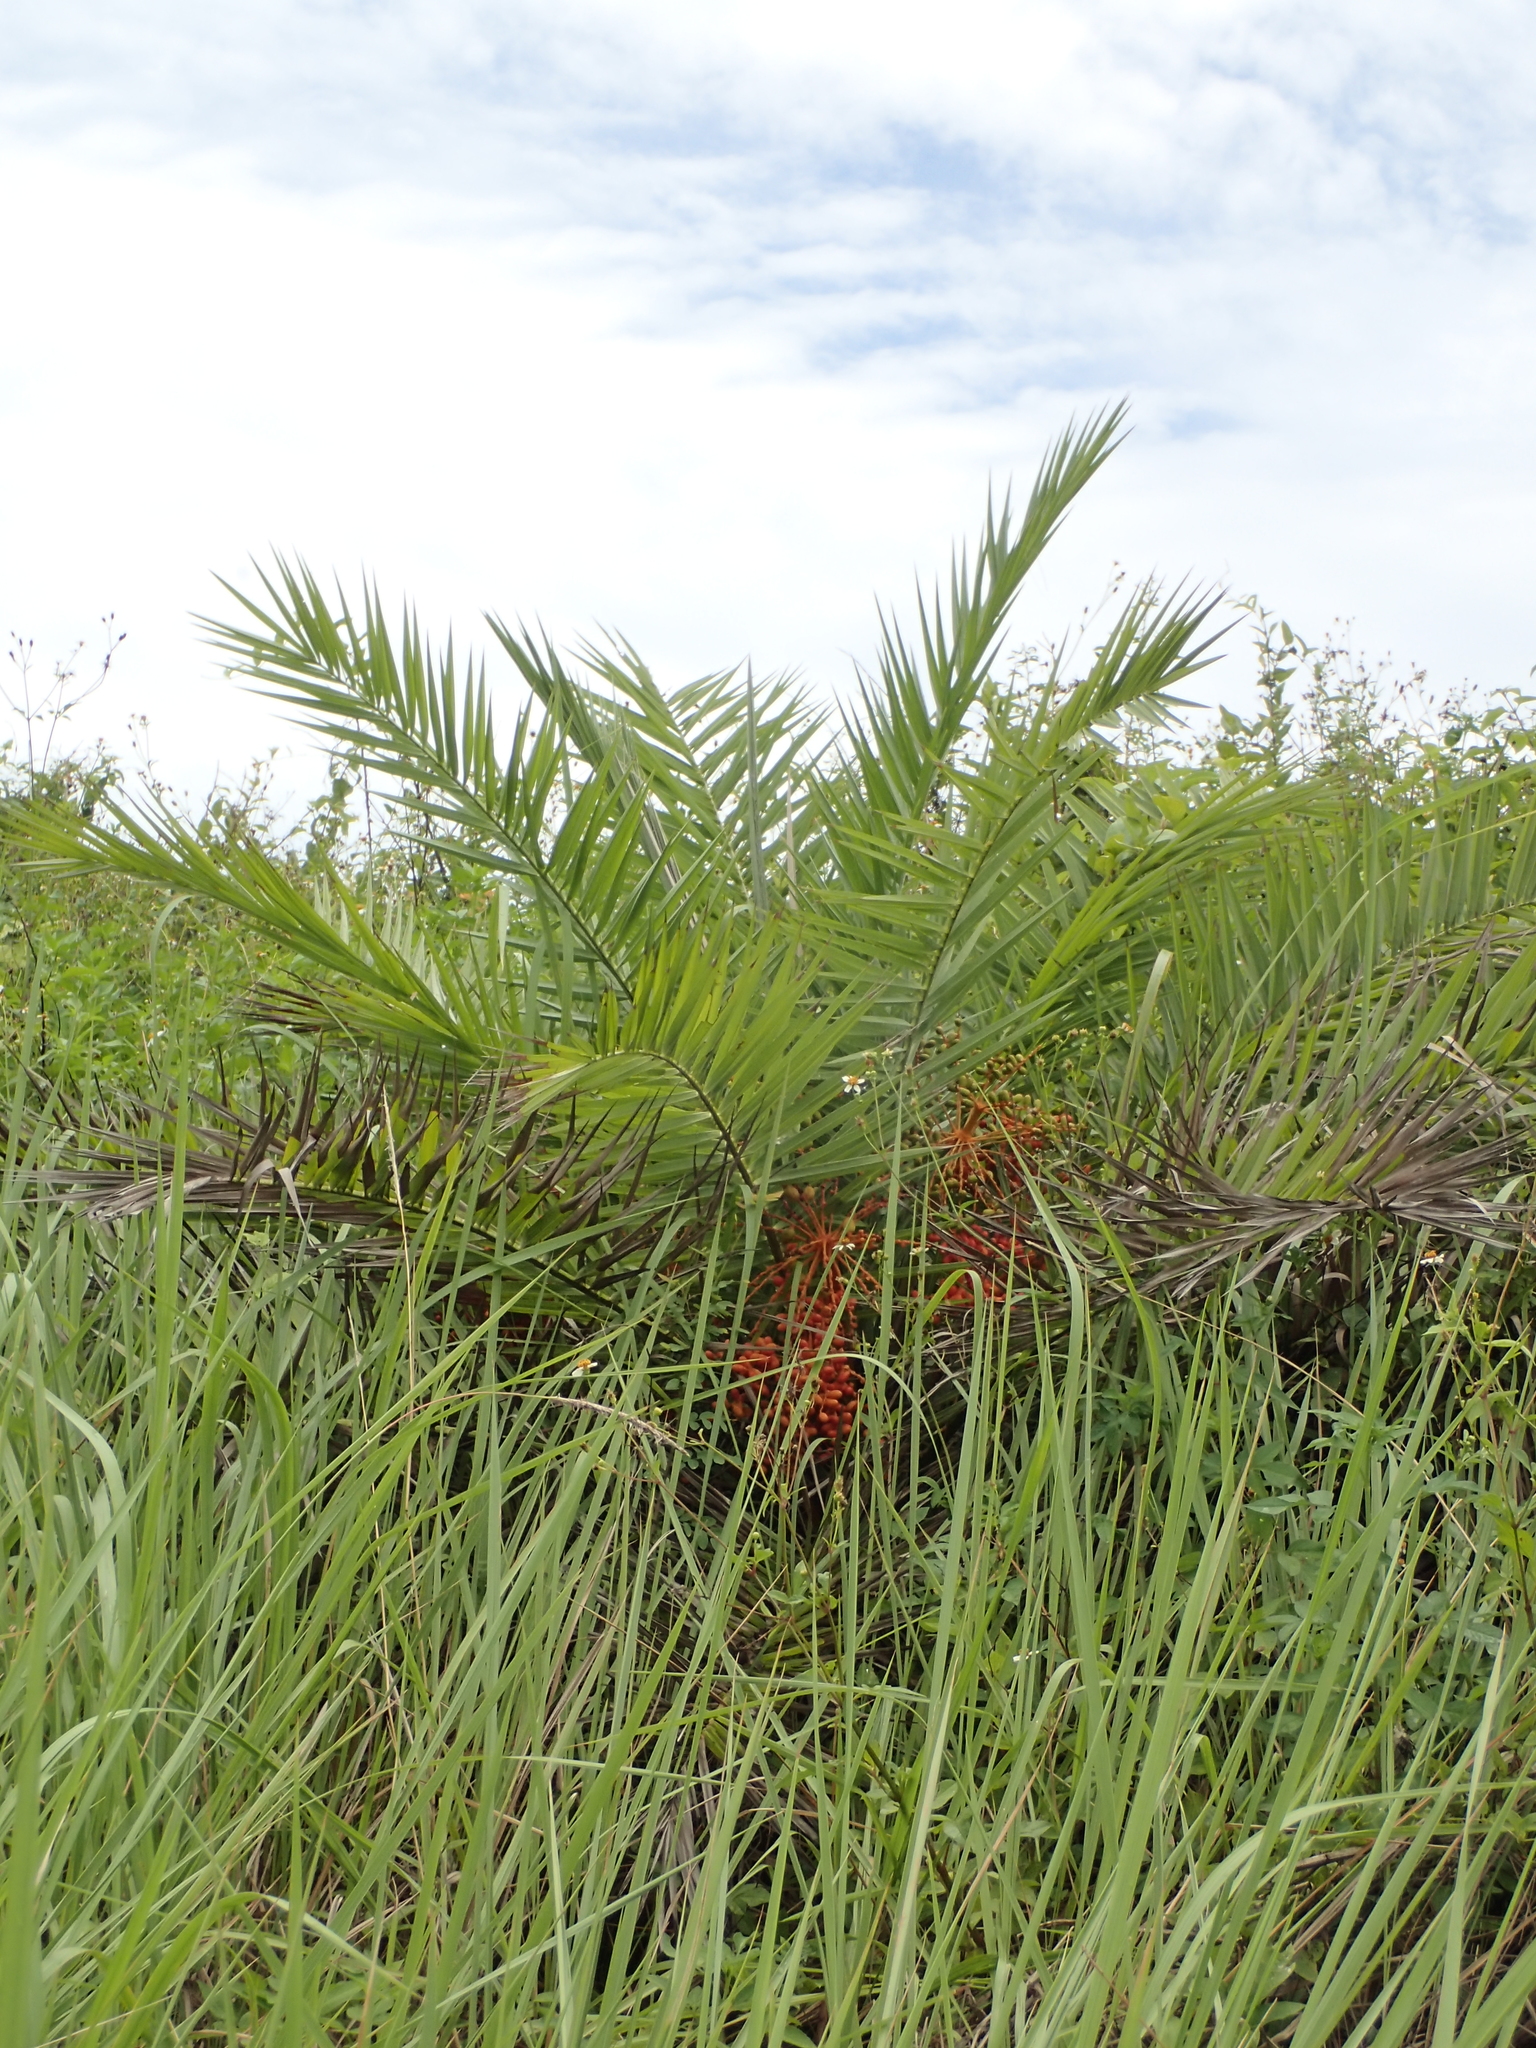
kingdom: Plantae
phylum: Tracheophyta
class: Liliopsida
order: Arecales
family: Arecaceae
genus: Phoenix
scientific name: Phoenix loureiroi
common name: Loureiro's palm
